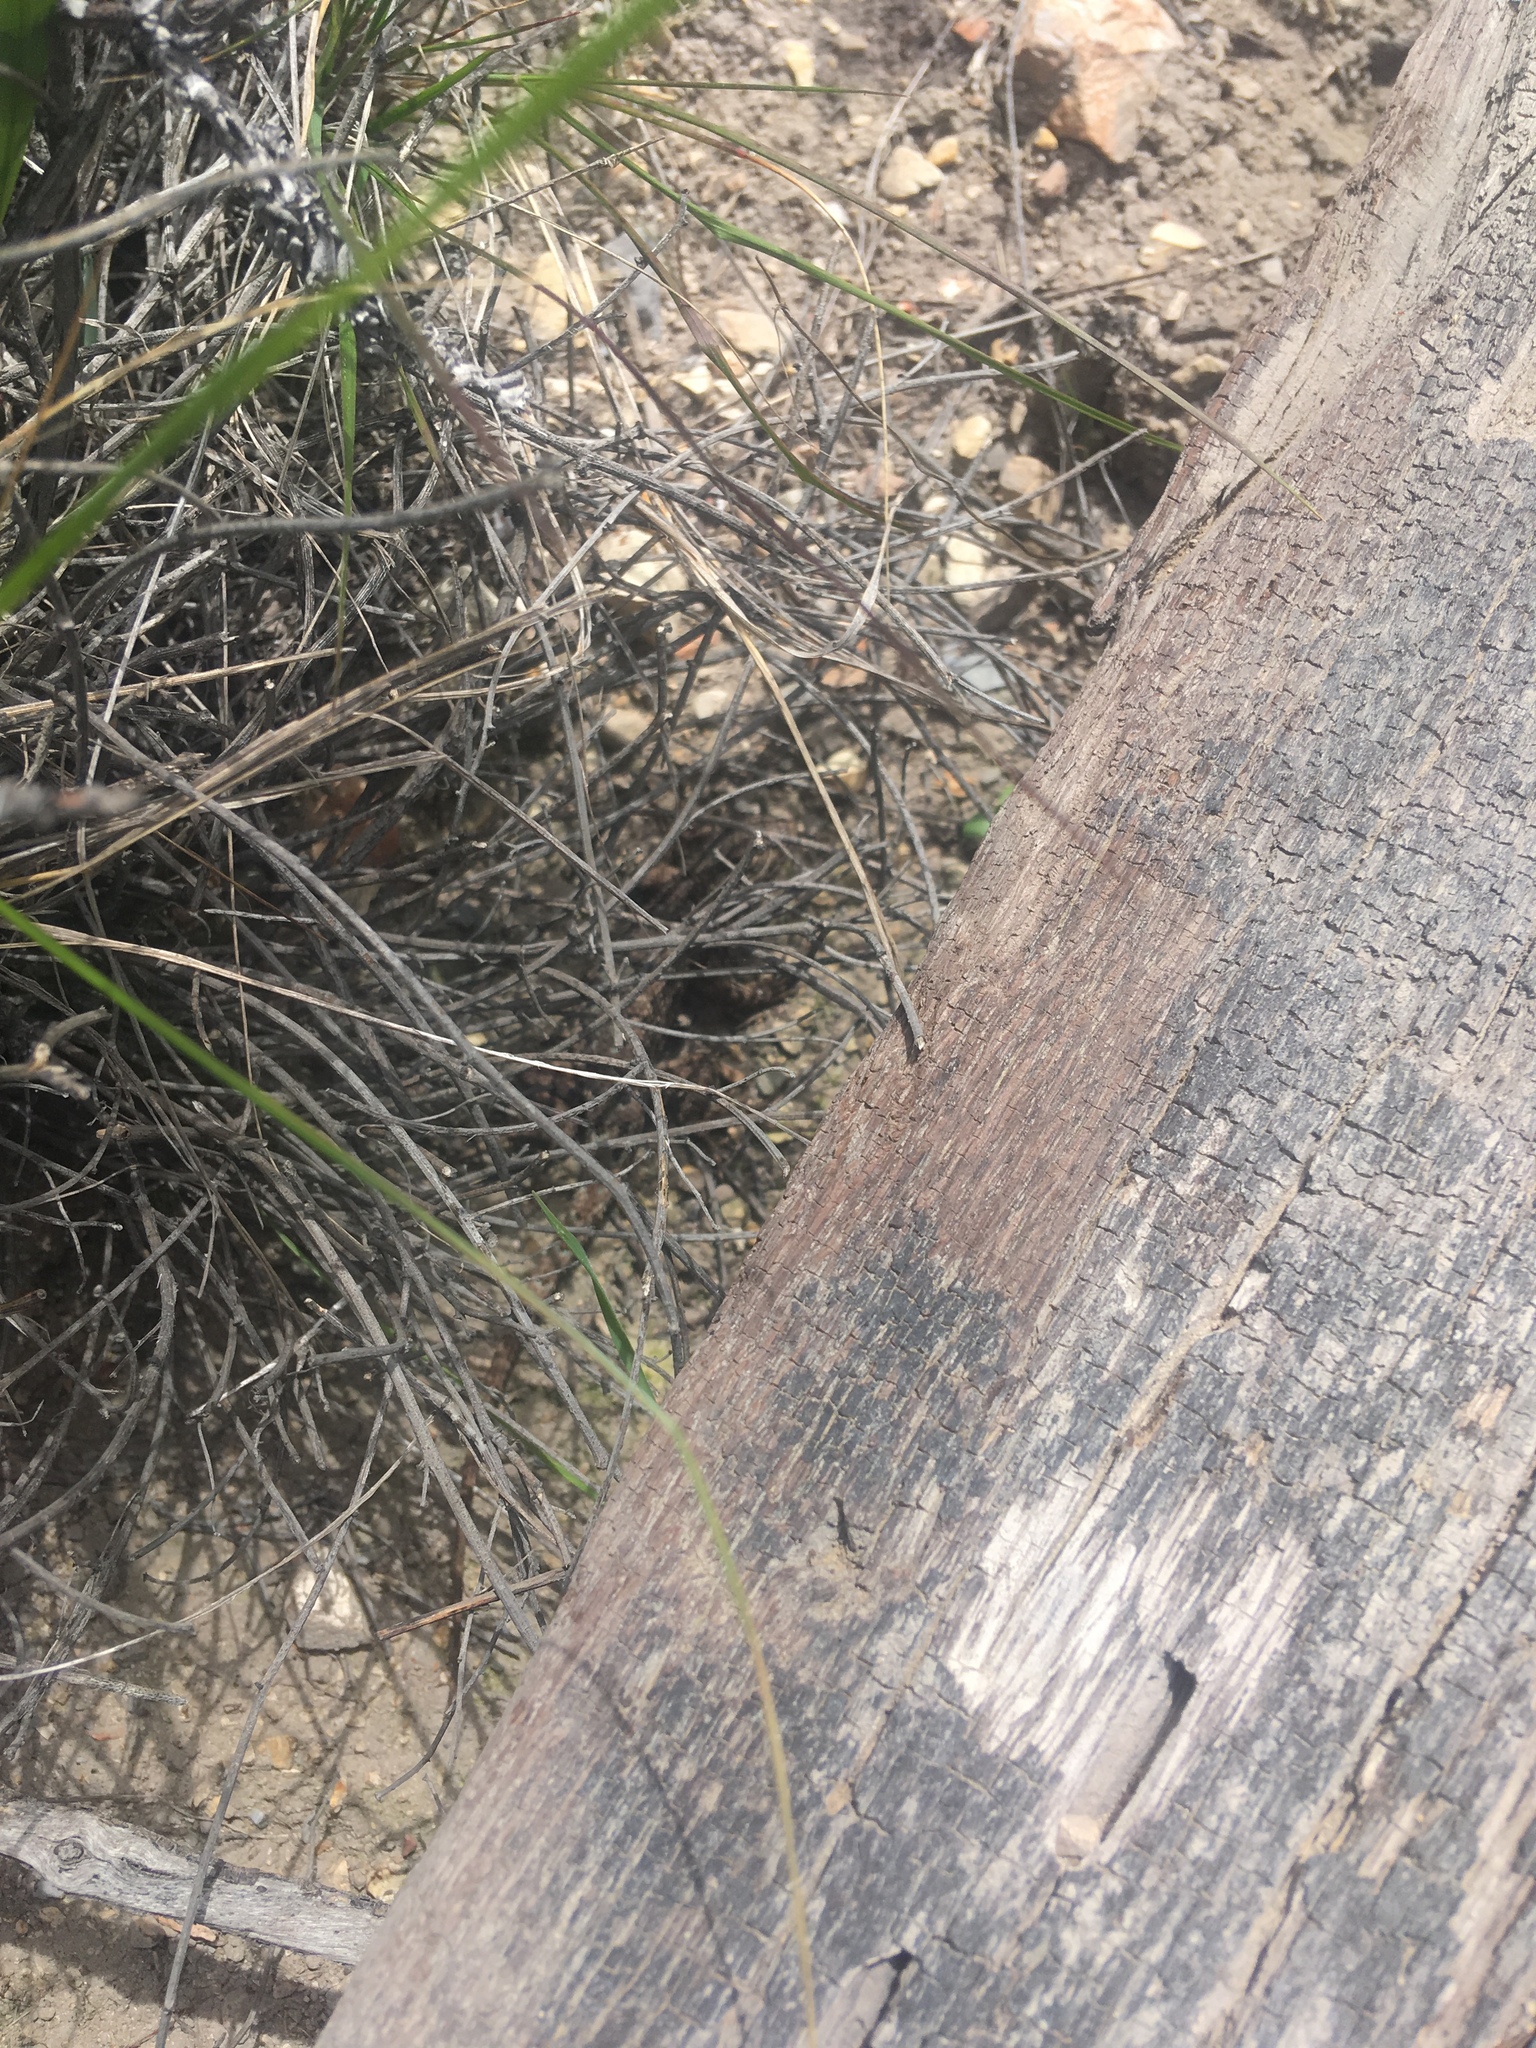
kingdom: Animalia
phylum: Chordata
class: Squamata
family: Phrynosomatidae
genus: Sceloporus
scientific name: Sceloporus occidentalis
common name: Western fence lizard
